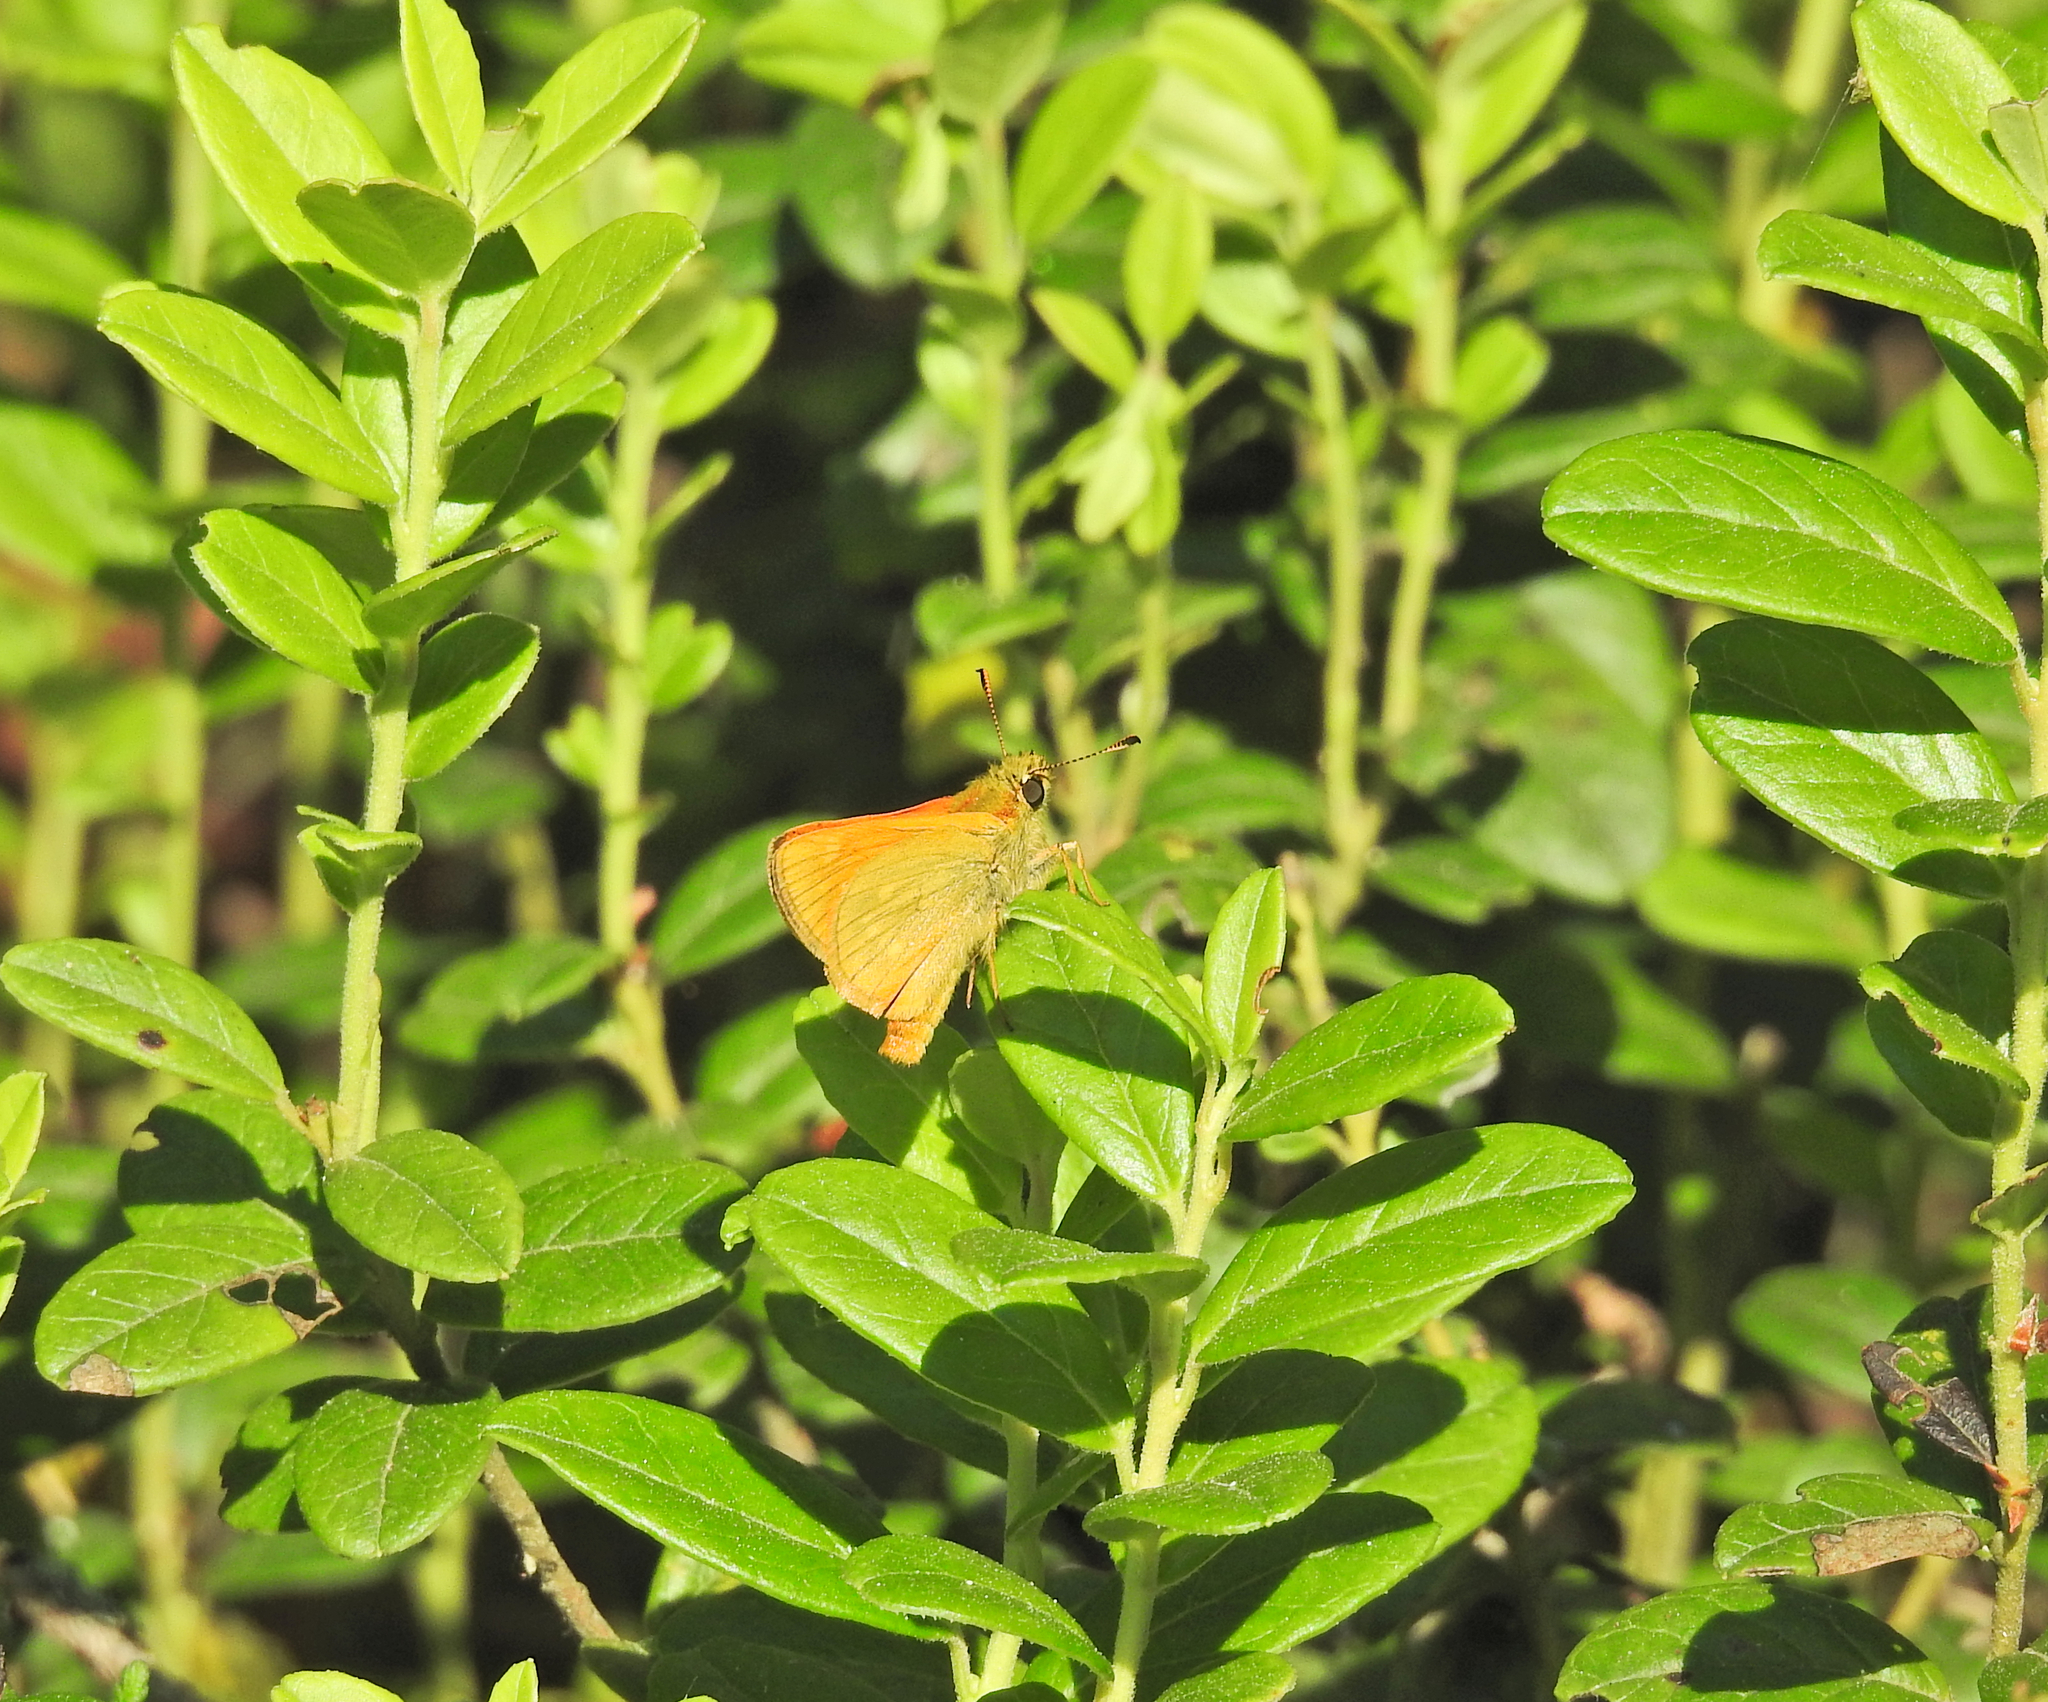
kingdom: Animalia
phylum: Arthropoda
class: Insecta
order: Lepidoptera
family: Hesperiidae
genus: Ochlodes
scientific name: Ochlodes venata
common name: Large skipper
